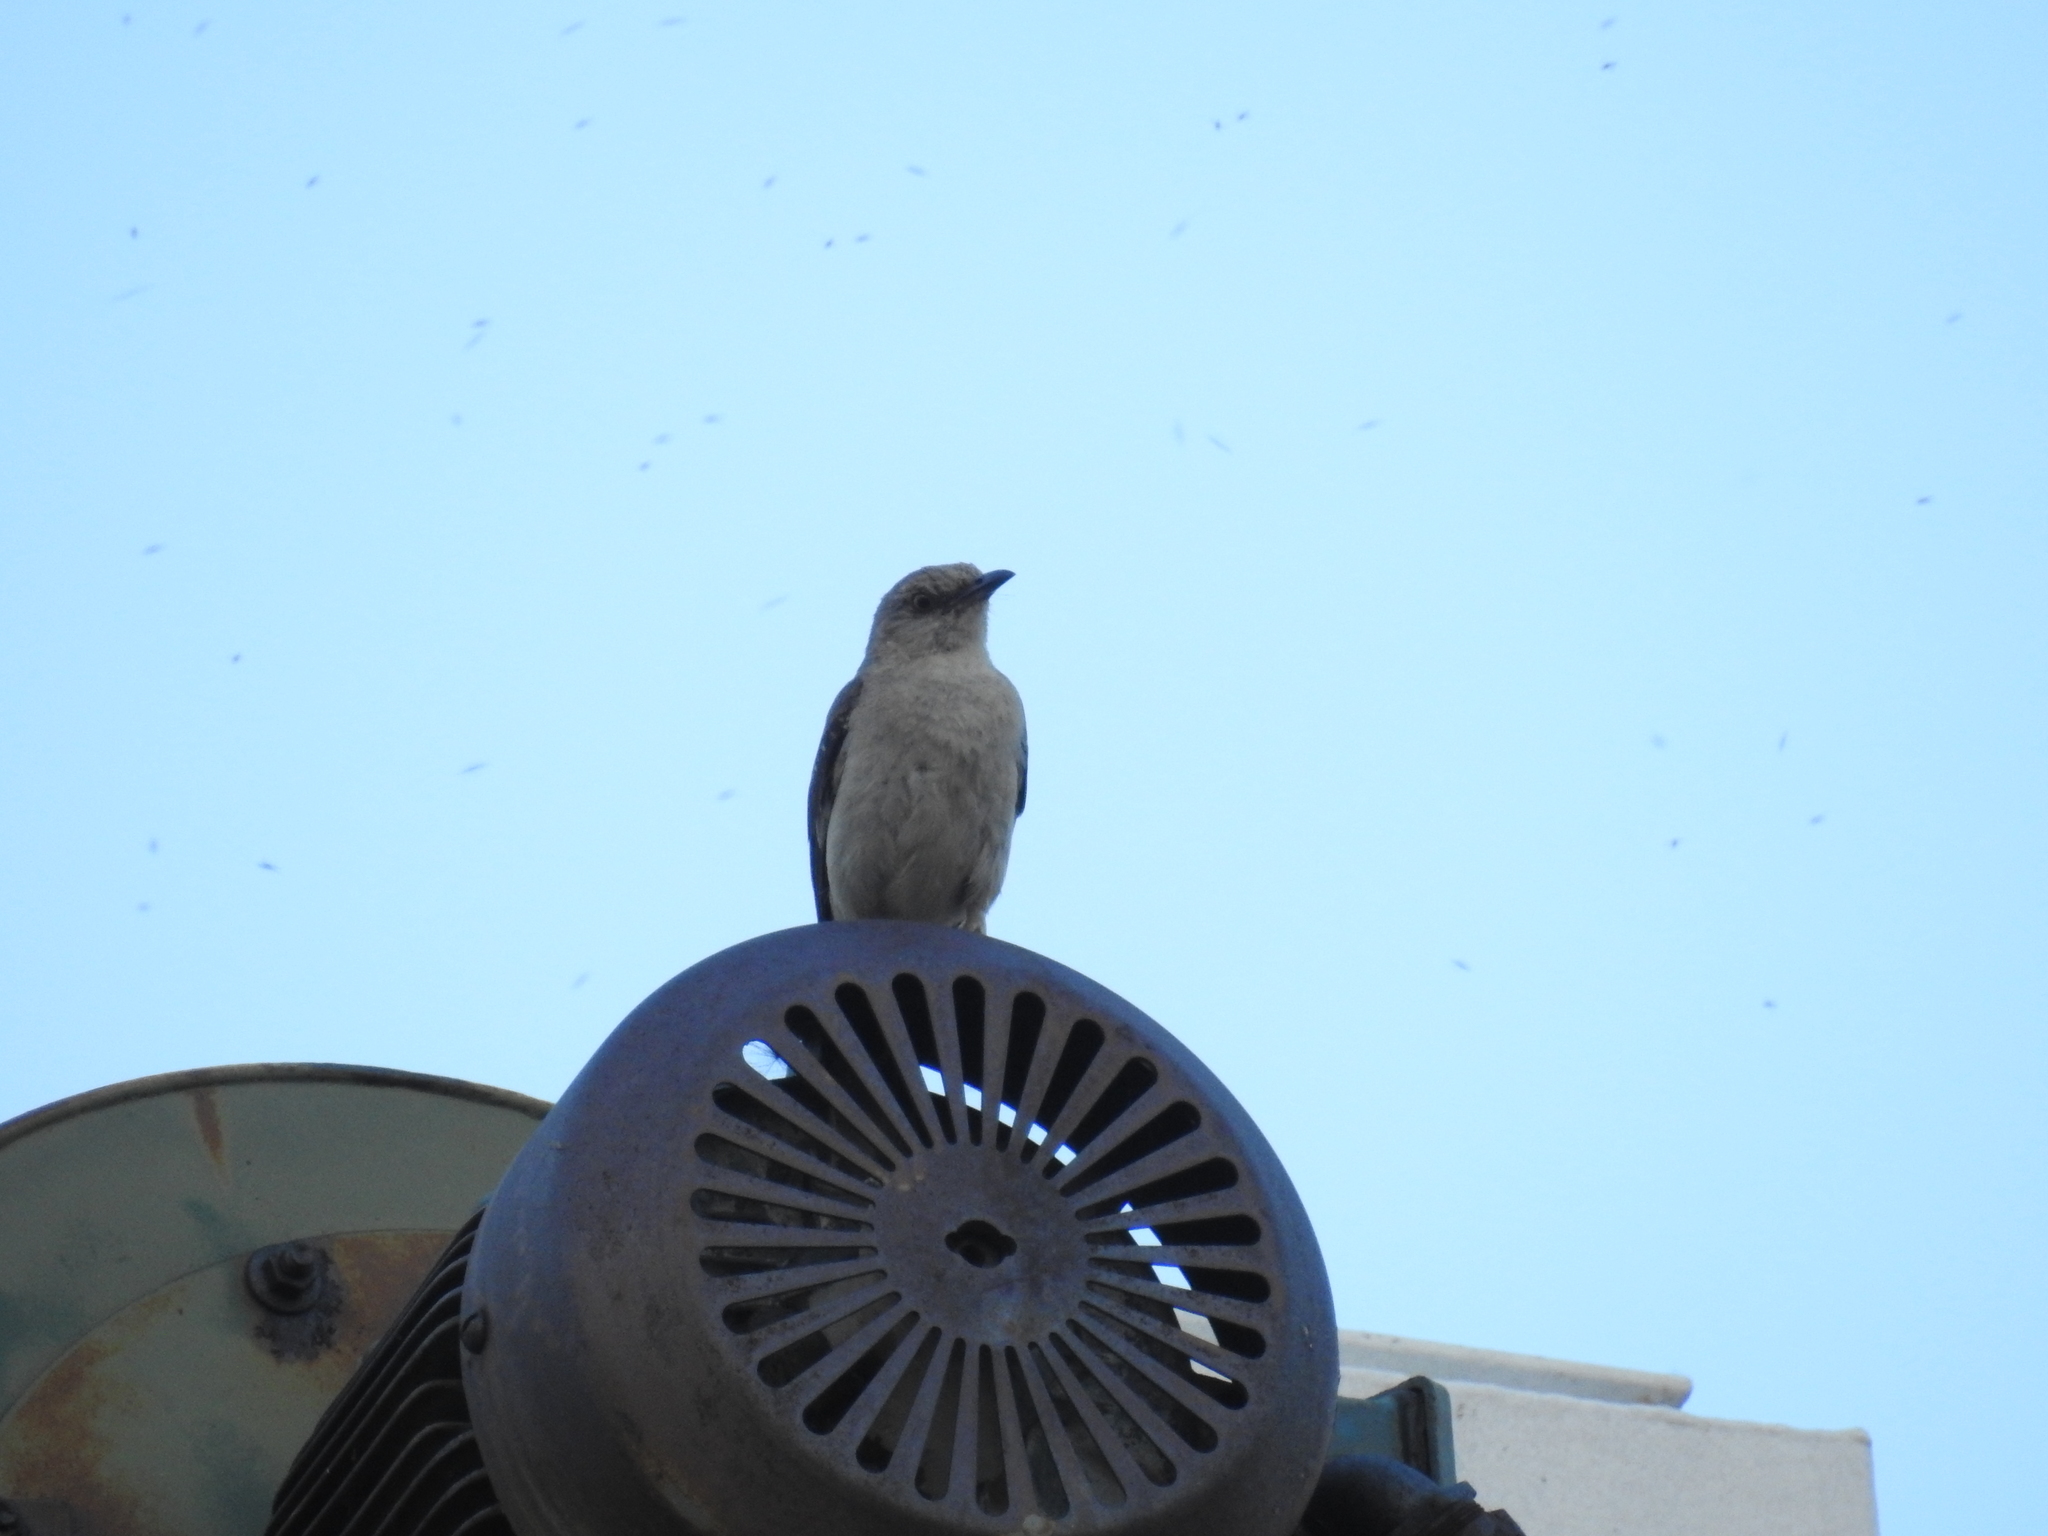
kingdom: Animalia
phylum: Chordata
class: Aves
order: Passeriformes
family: Mimidae
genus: Mimus
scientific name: Mimus polyglottos
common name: Northern mockingbird
